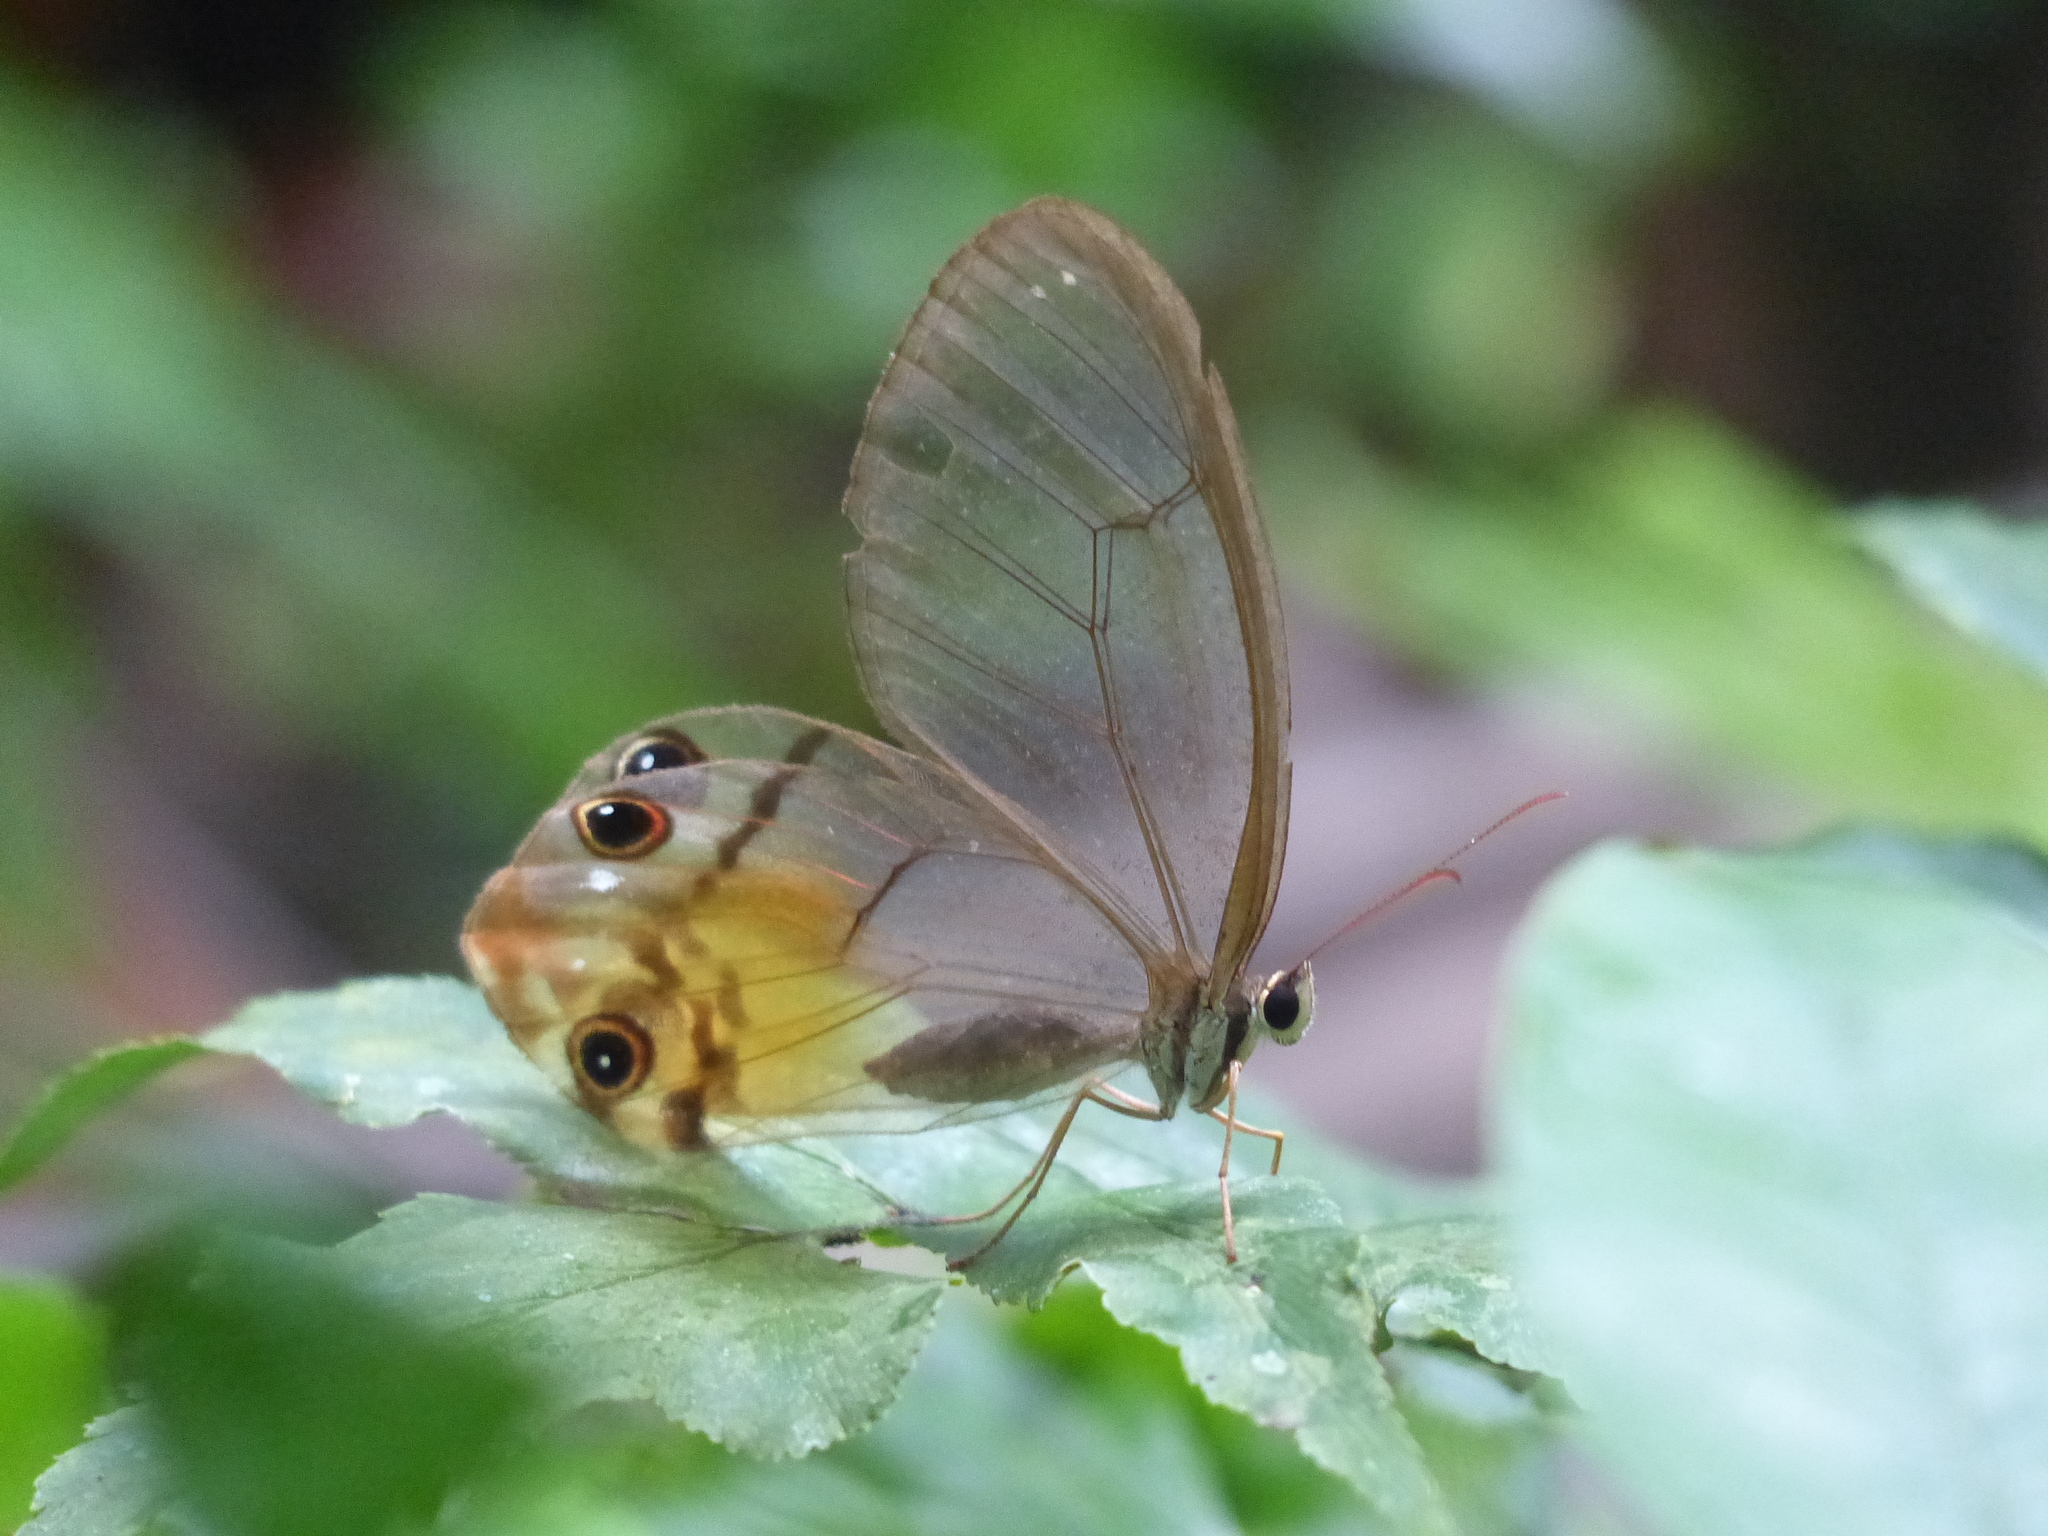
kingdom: Animalia
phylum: Arthropoda
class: Insecta
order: Lepidoptera
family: Nymphalidae
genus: Haetera
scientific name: Haetera piera
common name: Amber phantom
